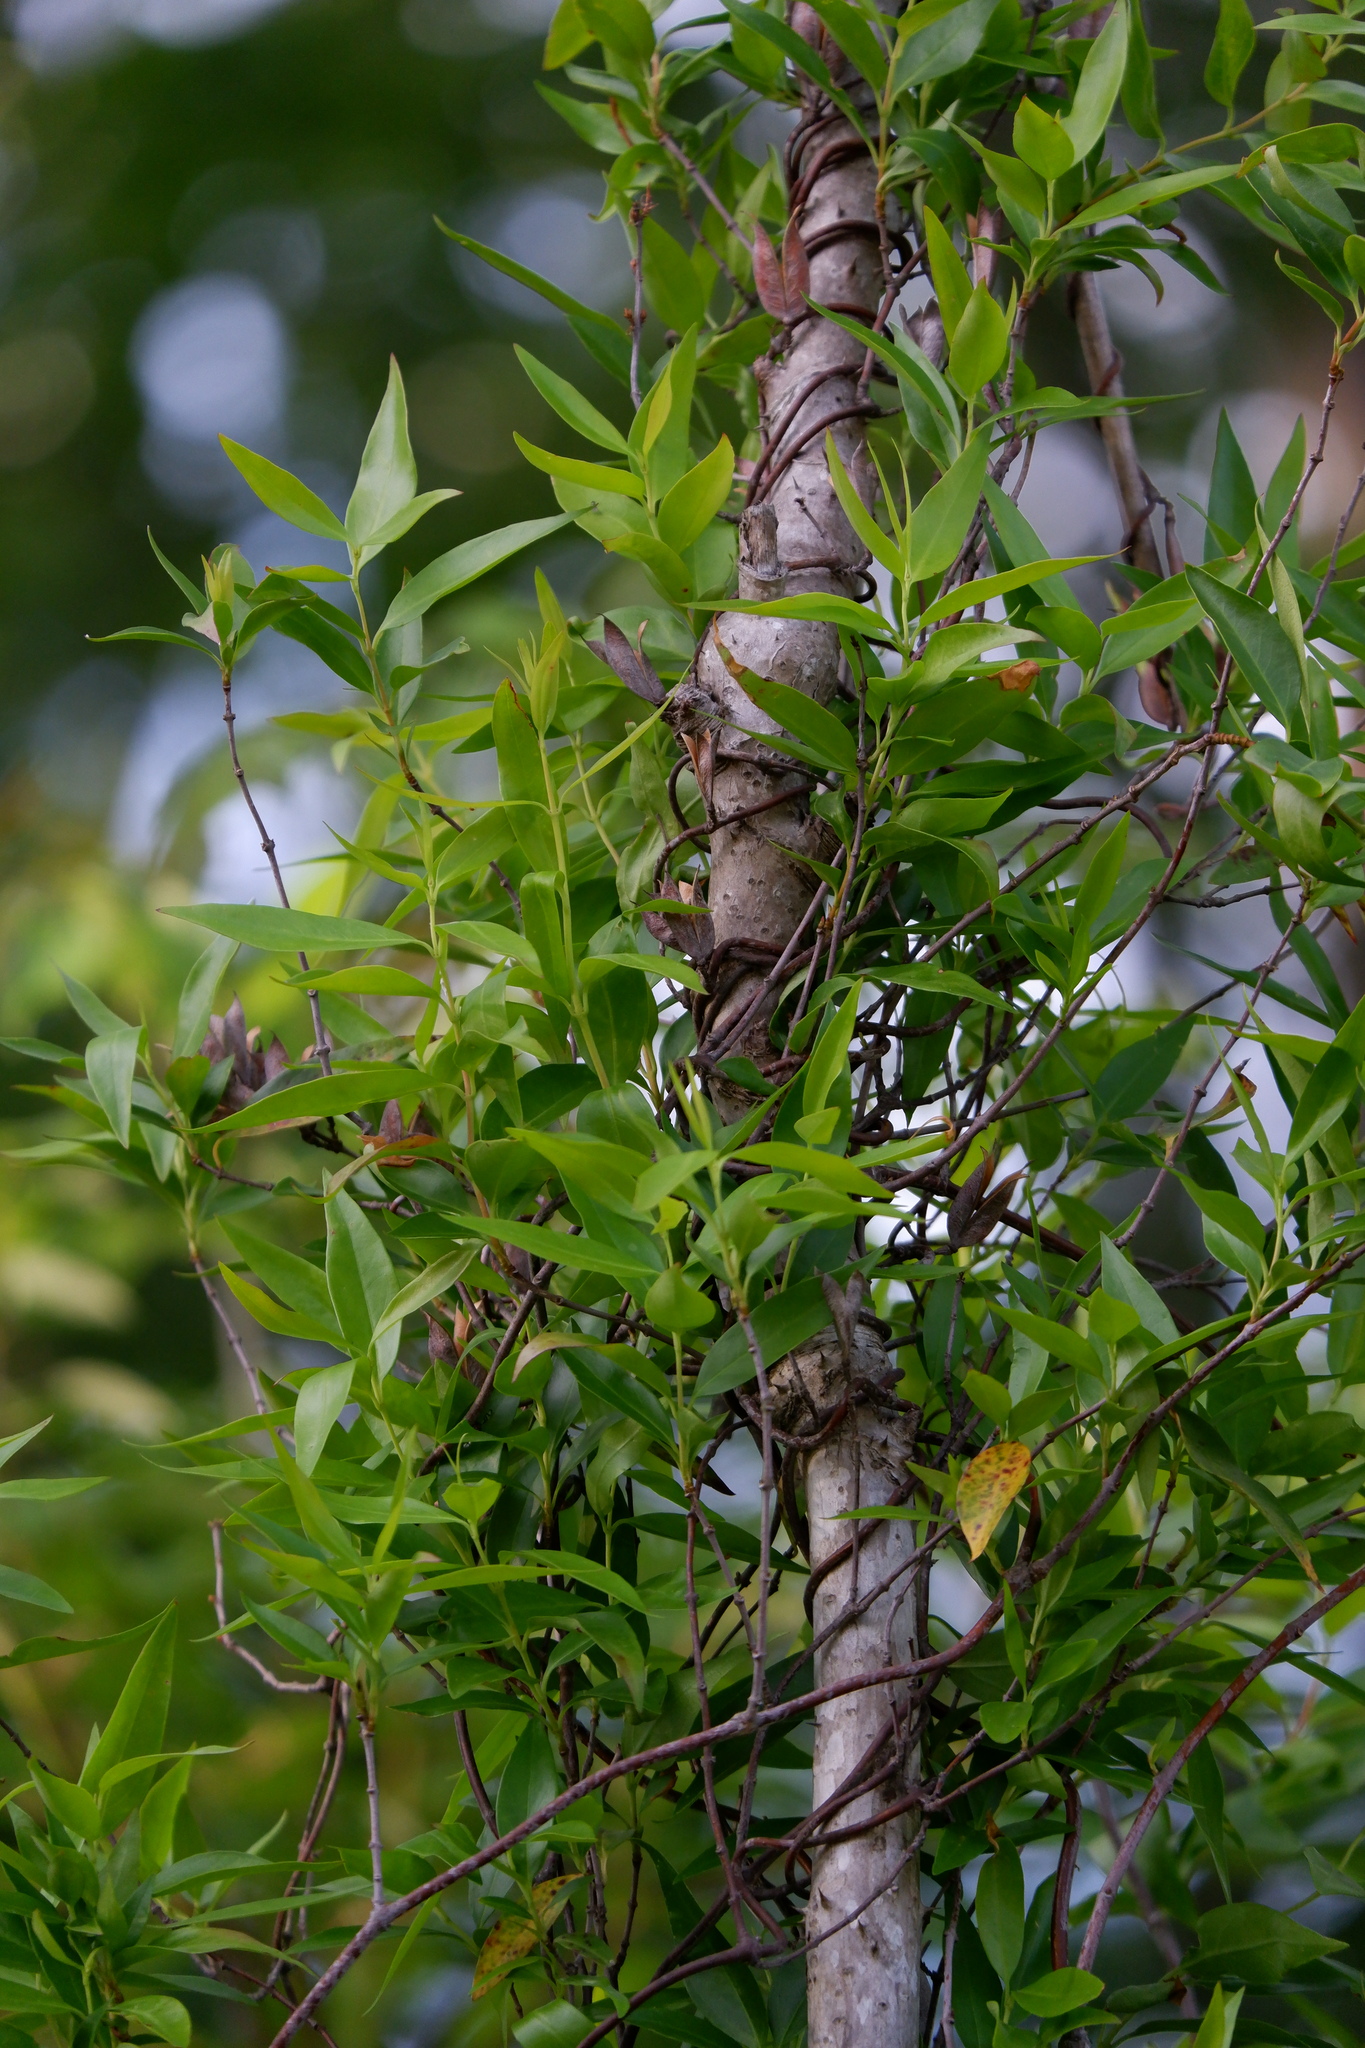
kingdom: Plantae
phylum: Tracheophyta
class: Magnoliopsida
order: Gentianales
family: Gelsemiaceae
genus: Gelsemium
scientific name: Gelsemium sempervirens
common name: Carolina-jasmine
